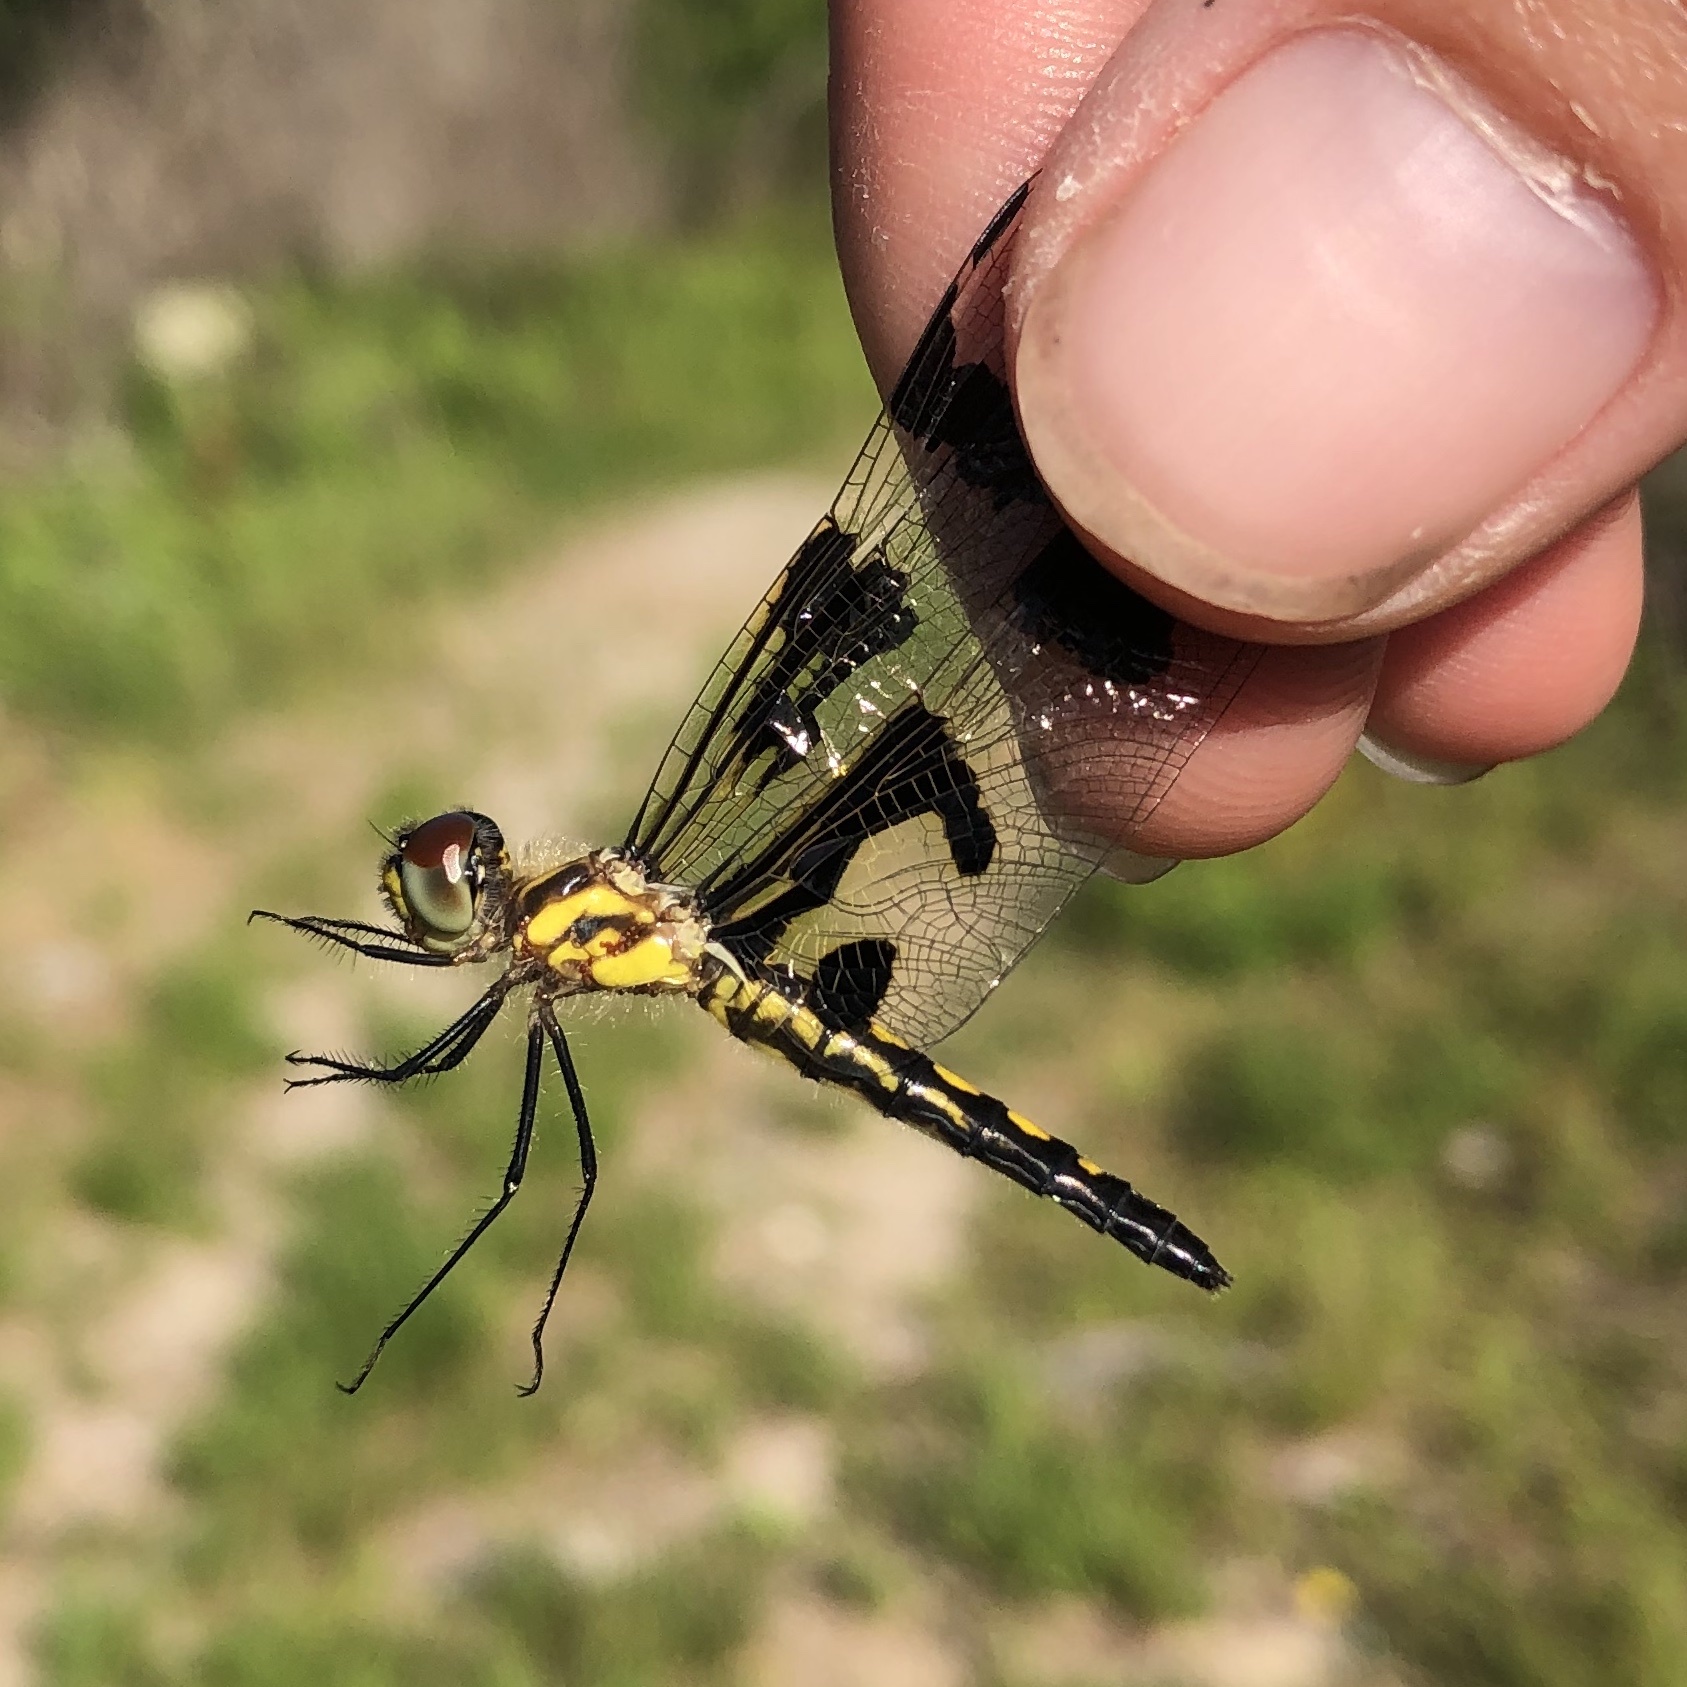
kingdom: Animalia
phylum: Arthropoda
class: Insecta
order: Odonata
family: Libellulidae
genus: Celithemis
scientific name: Celithemis fasciata
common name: Banded pennant
